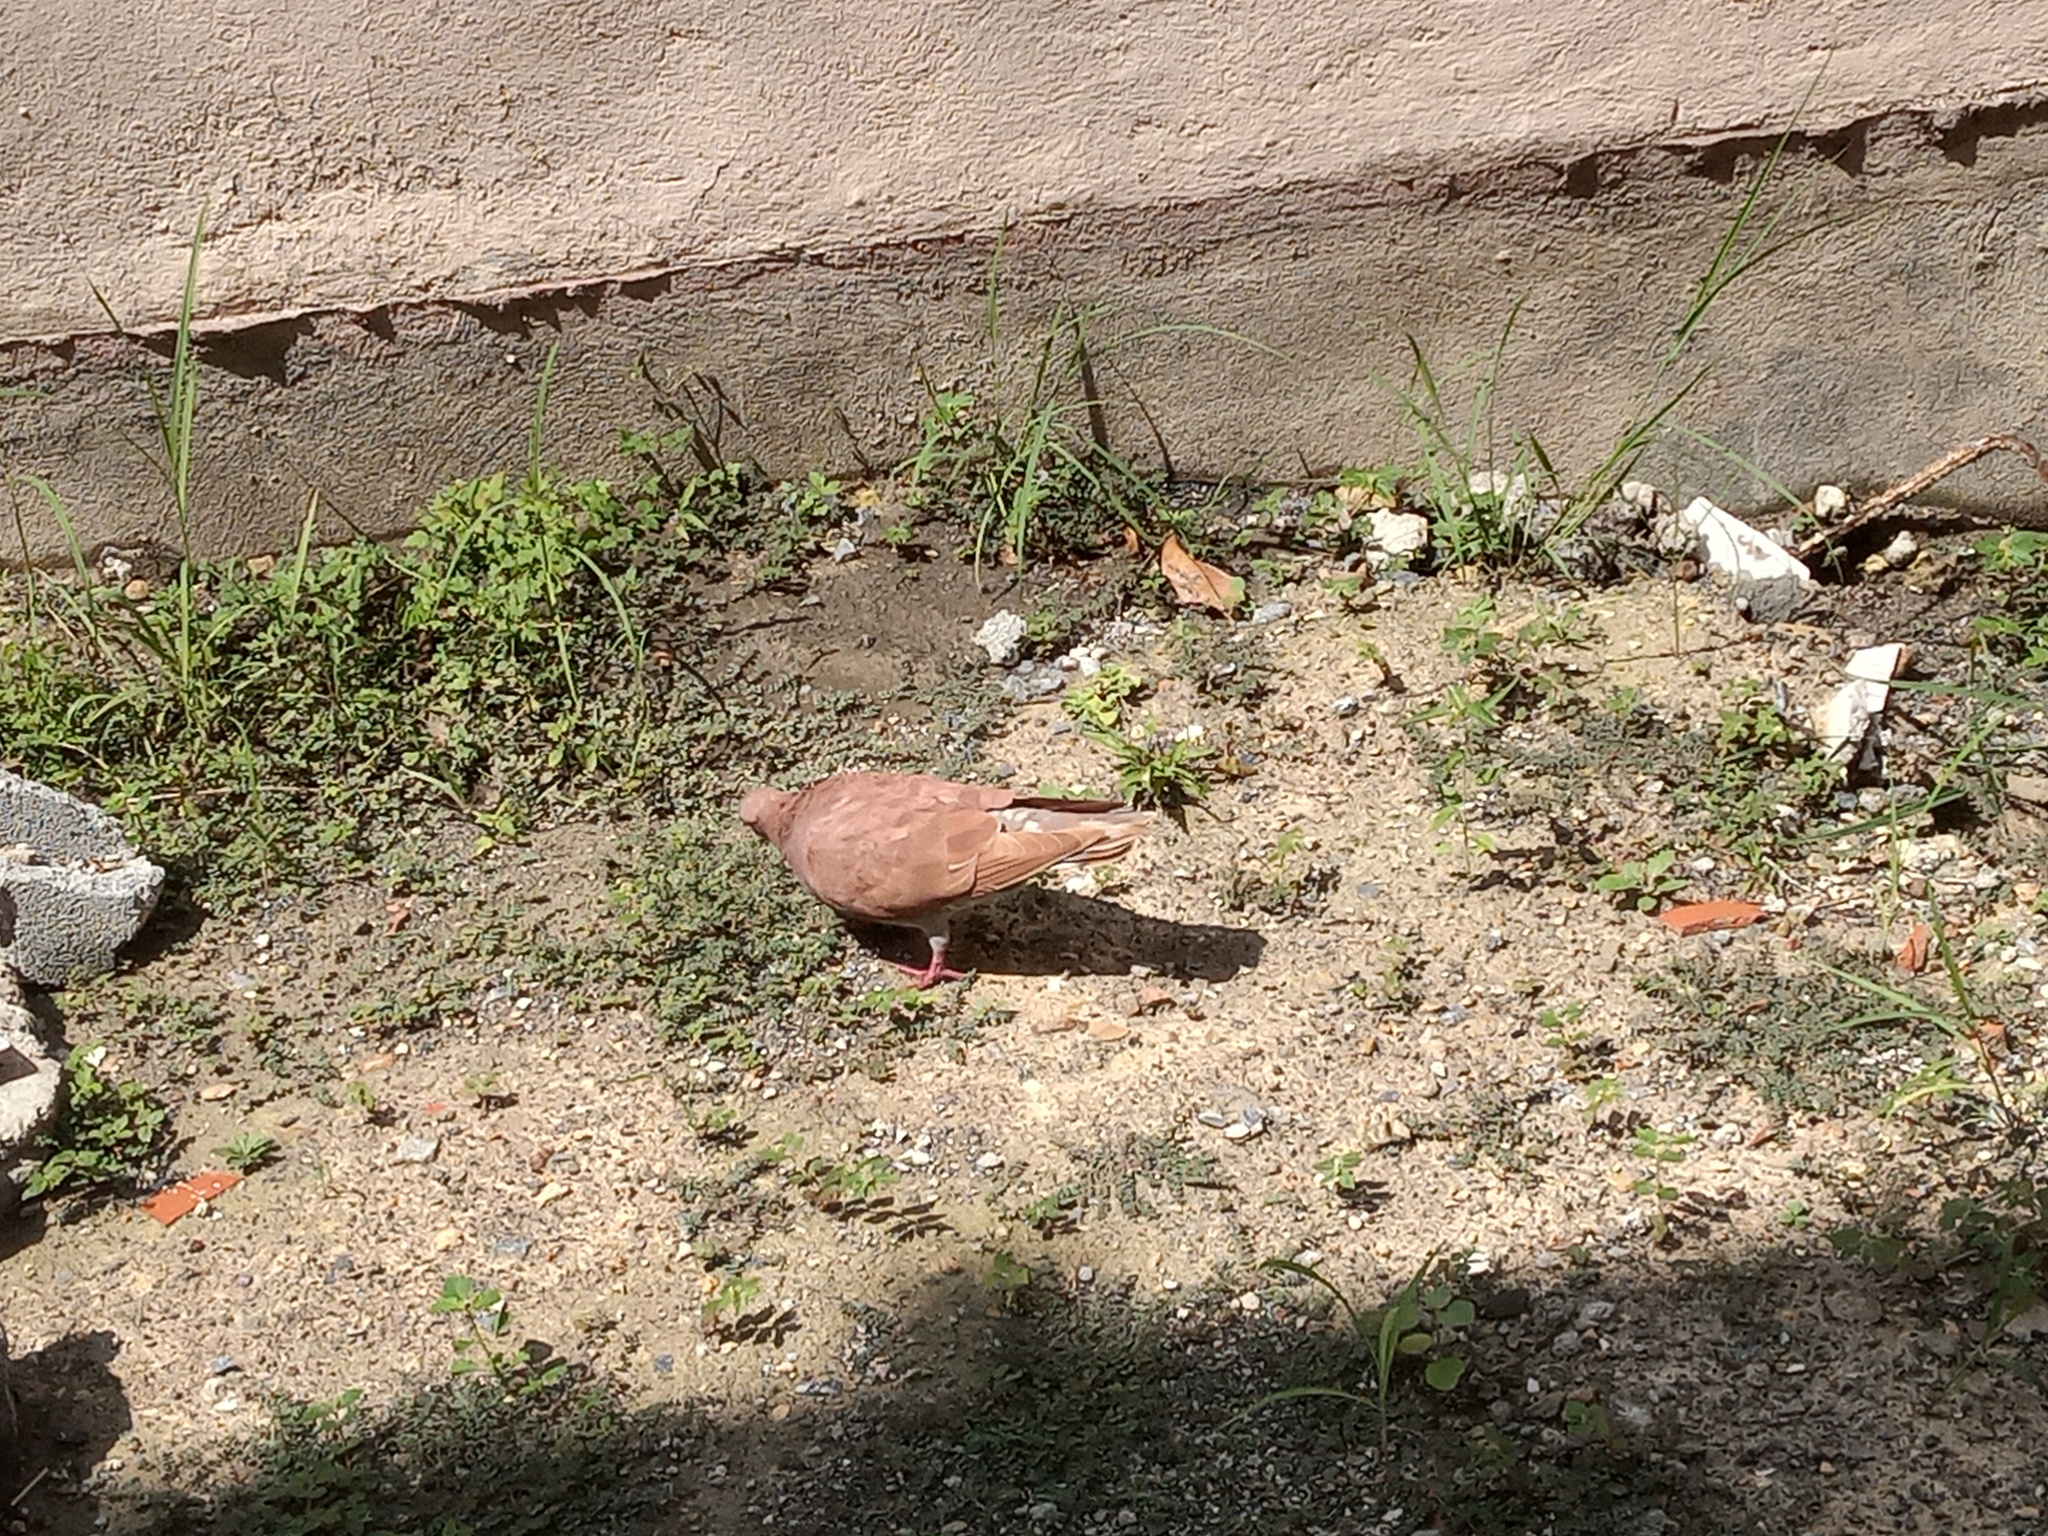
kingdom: Animalia
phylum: Chordata
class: Aves
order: Columbiformes
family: Columbidae
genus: Columba
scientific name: Columba livia
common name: Rock pigeon
